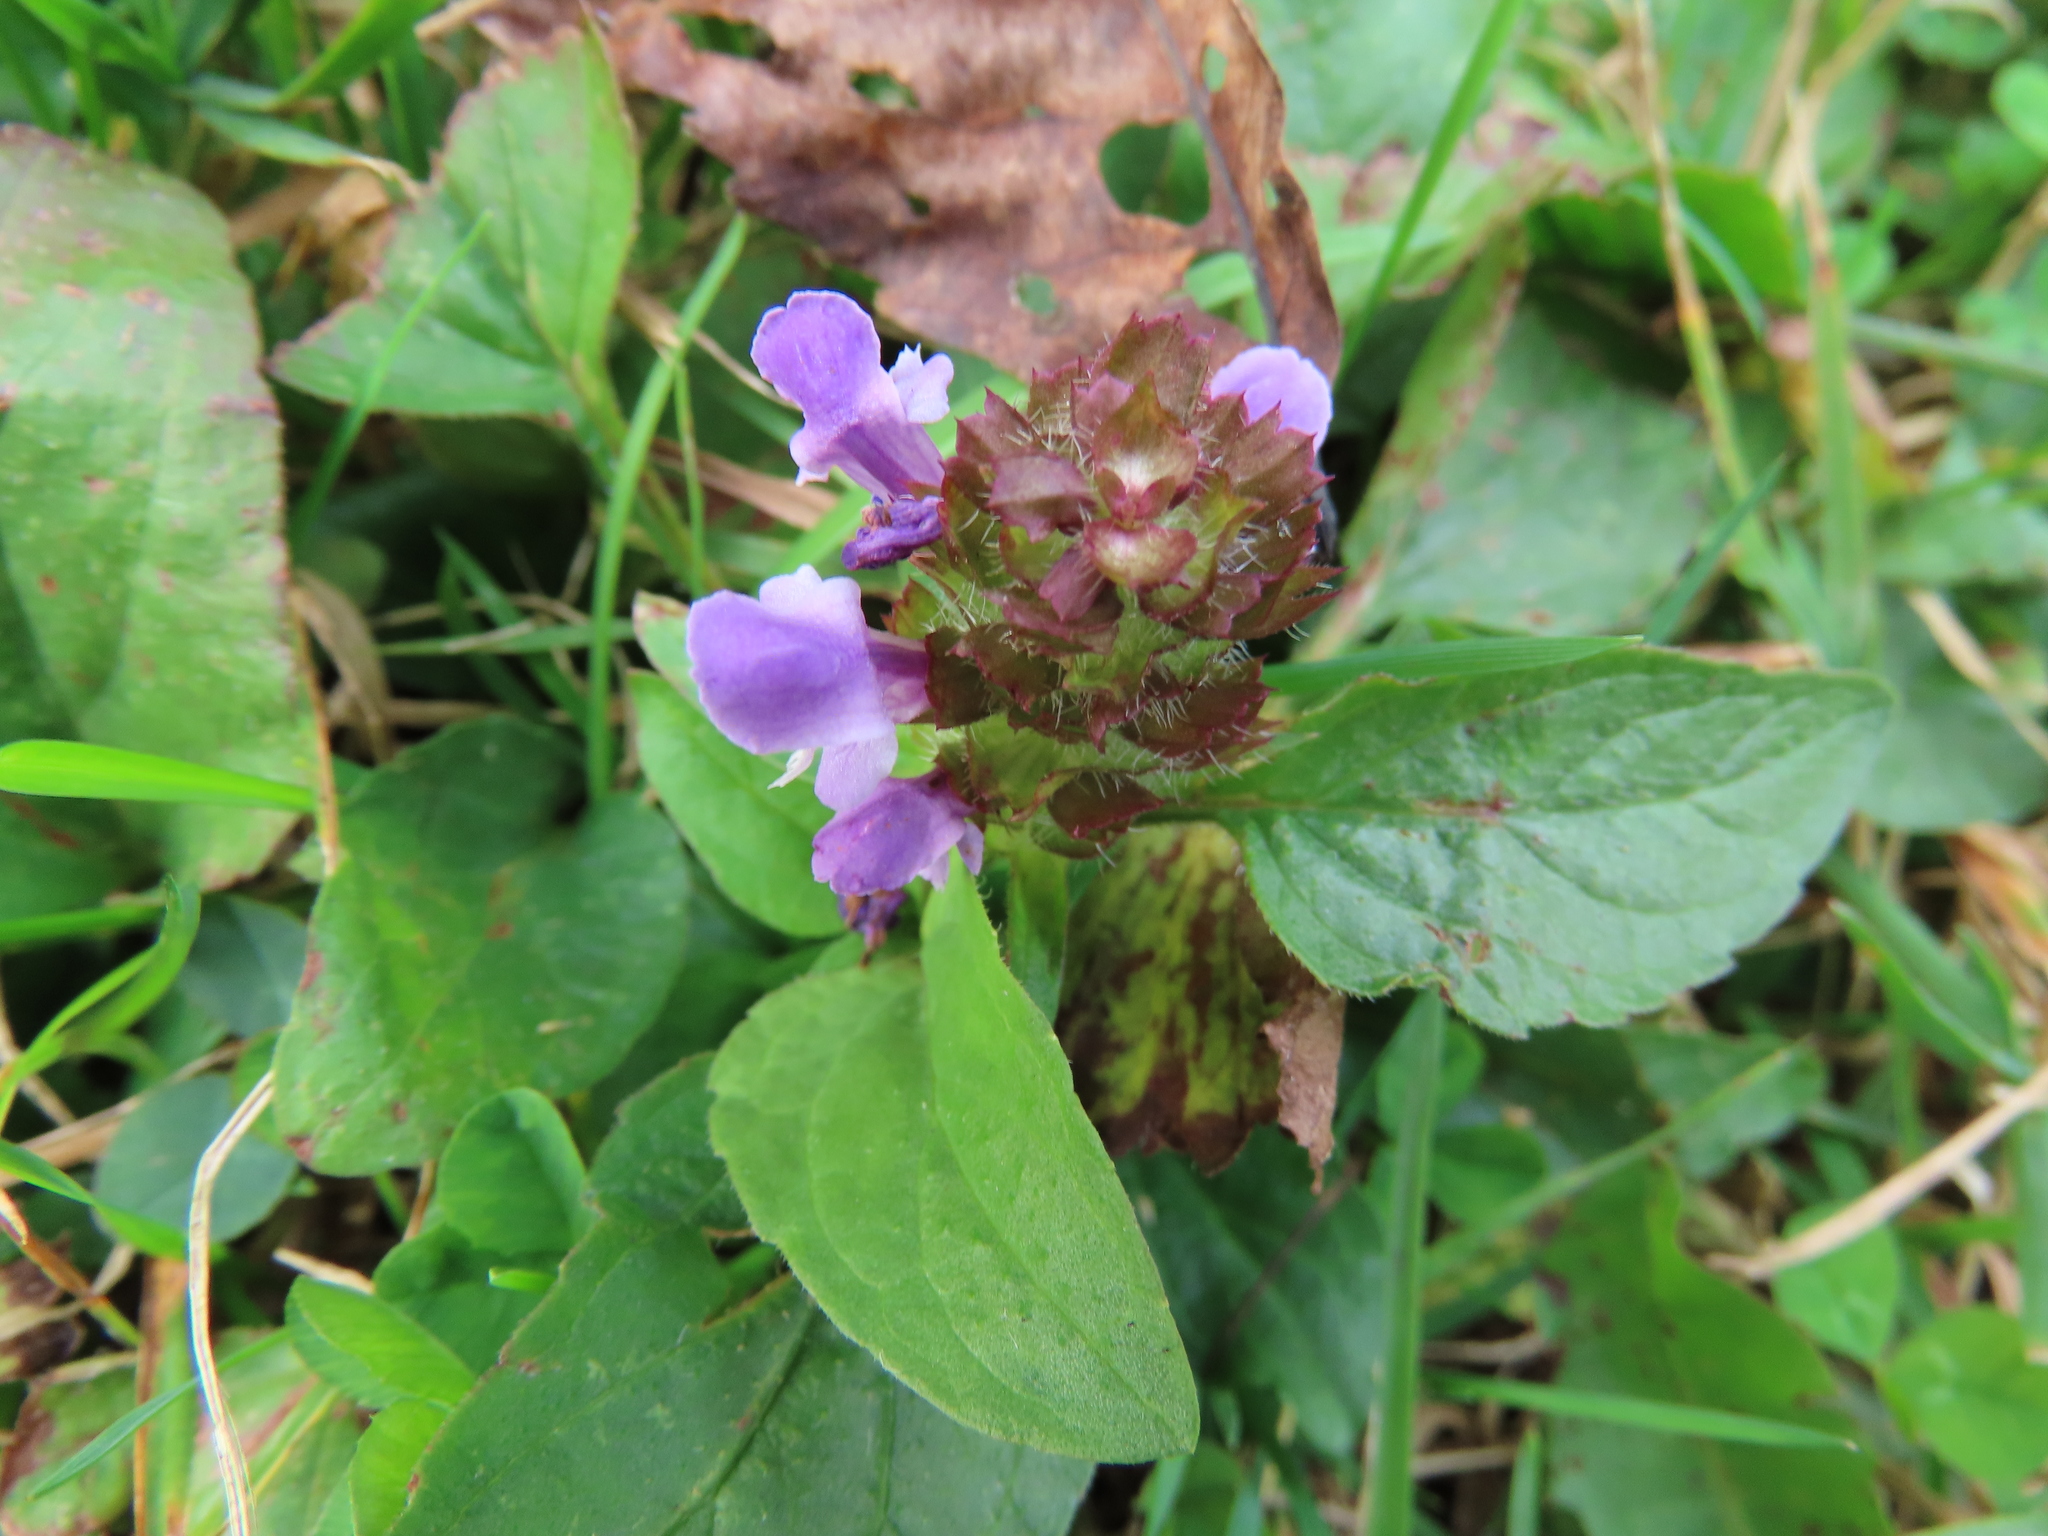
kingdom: Plantae
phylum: Tracheophyta
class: Magnoliopsida
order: Lamiales
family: Lamiaceae
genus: Prunella
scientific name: Prunella vulgaris
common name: Heal-all
